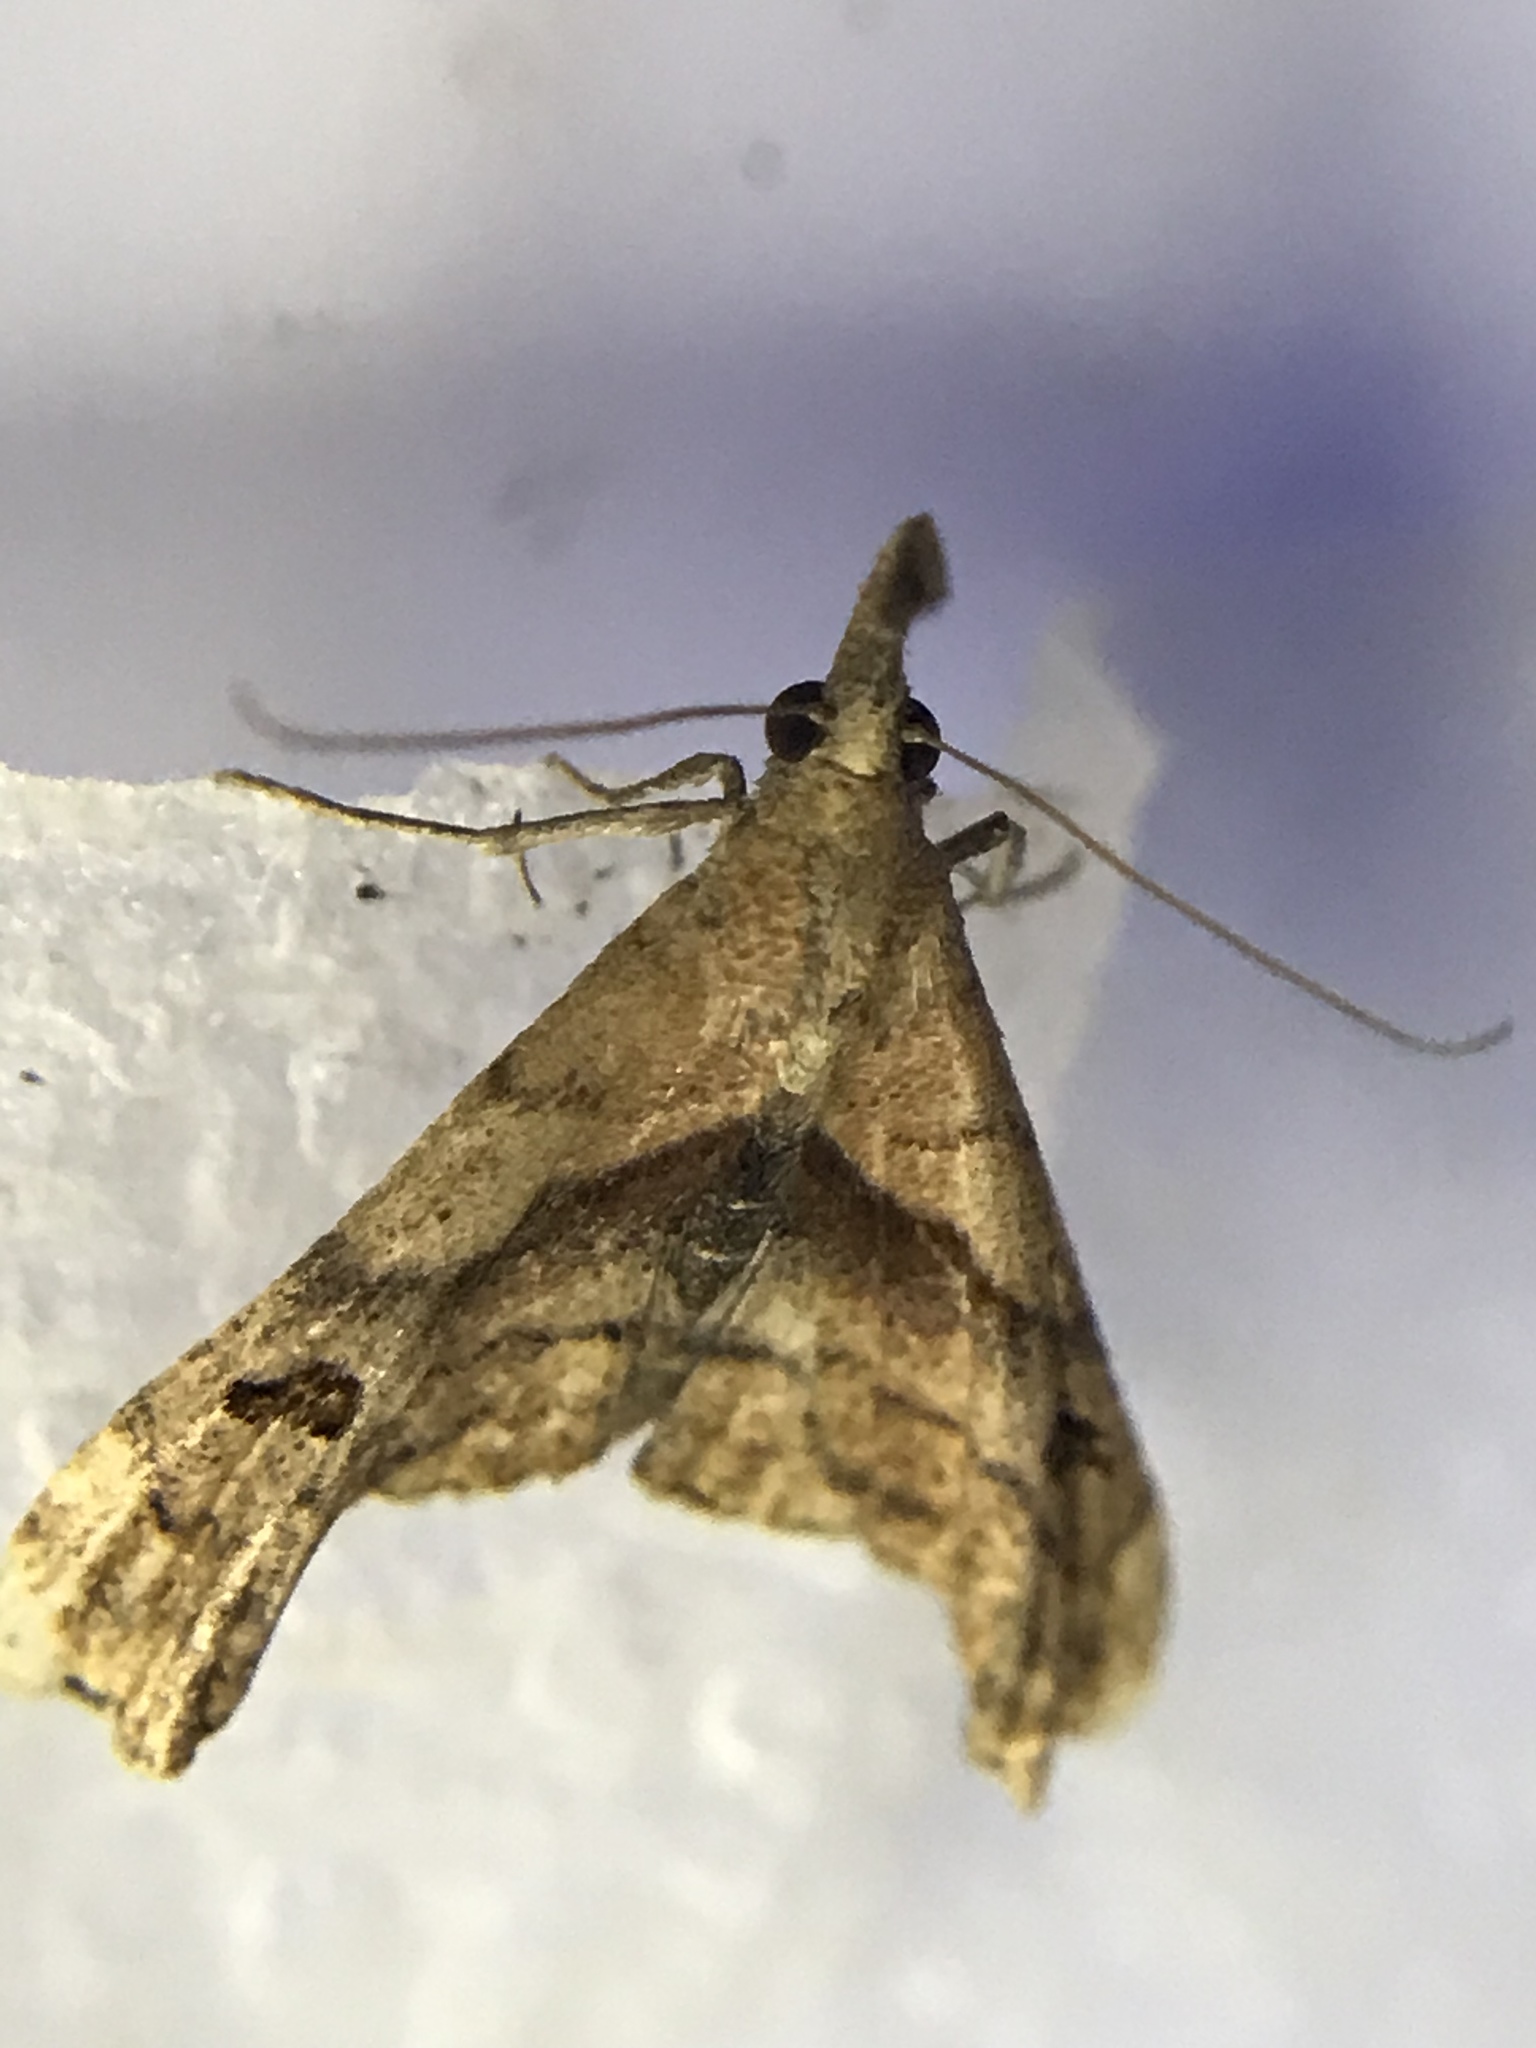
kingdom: Animalia
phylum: Arthropoda
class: Insecta
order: Lepidoptera
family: Erebidae
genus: Palthis
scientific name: Palthis angulalis
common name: Dark-spotted palthis moth
